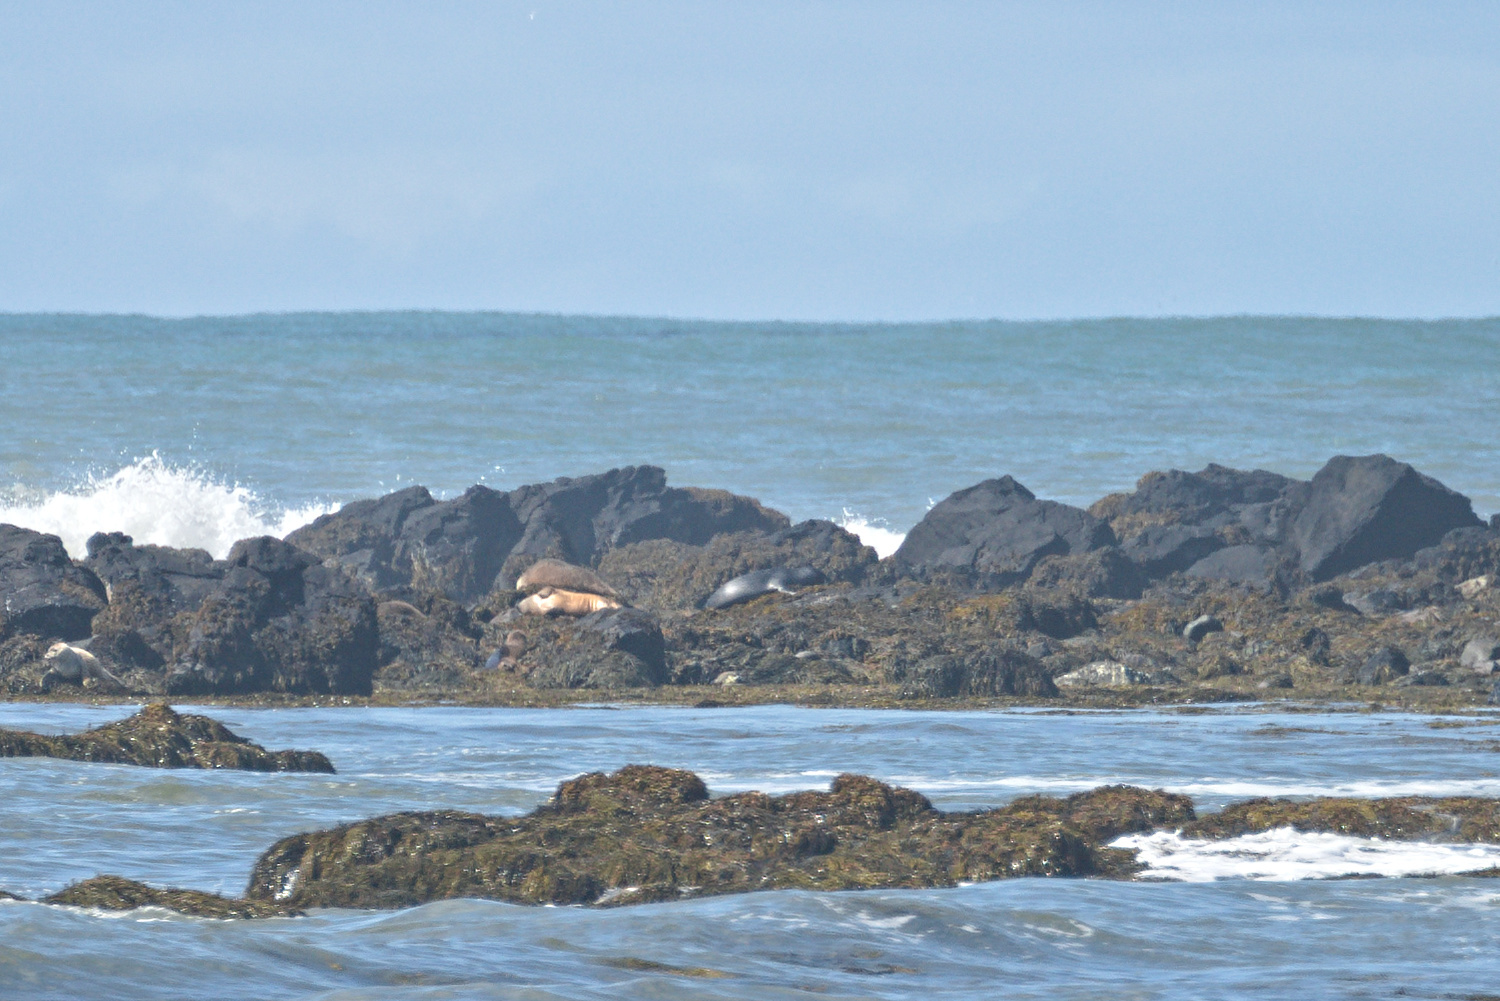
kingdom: Animalia
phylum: Chordata
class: Mammalia
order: Carnivora
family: Phocidae
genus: Phoca
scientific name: Phoca vitulina
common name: Harbor seal
